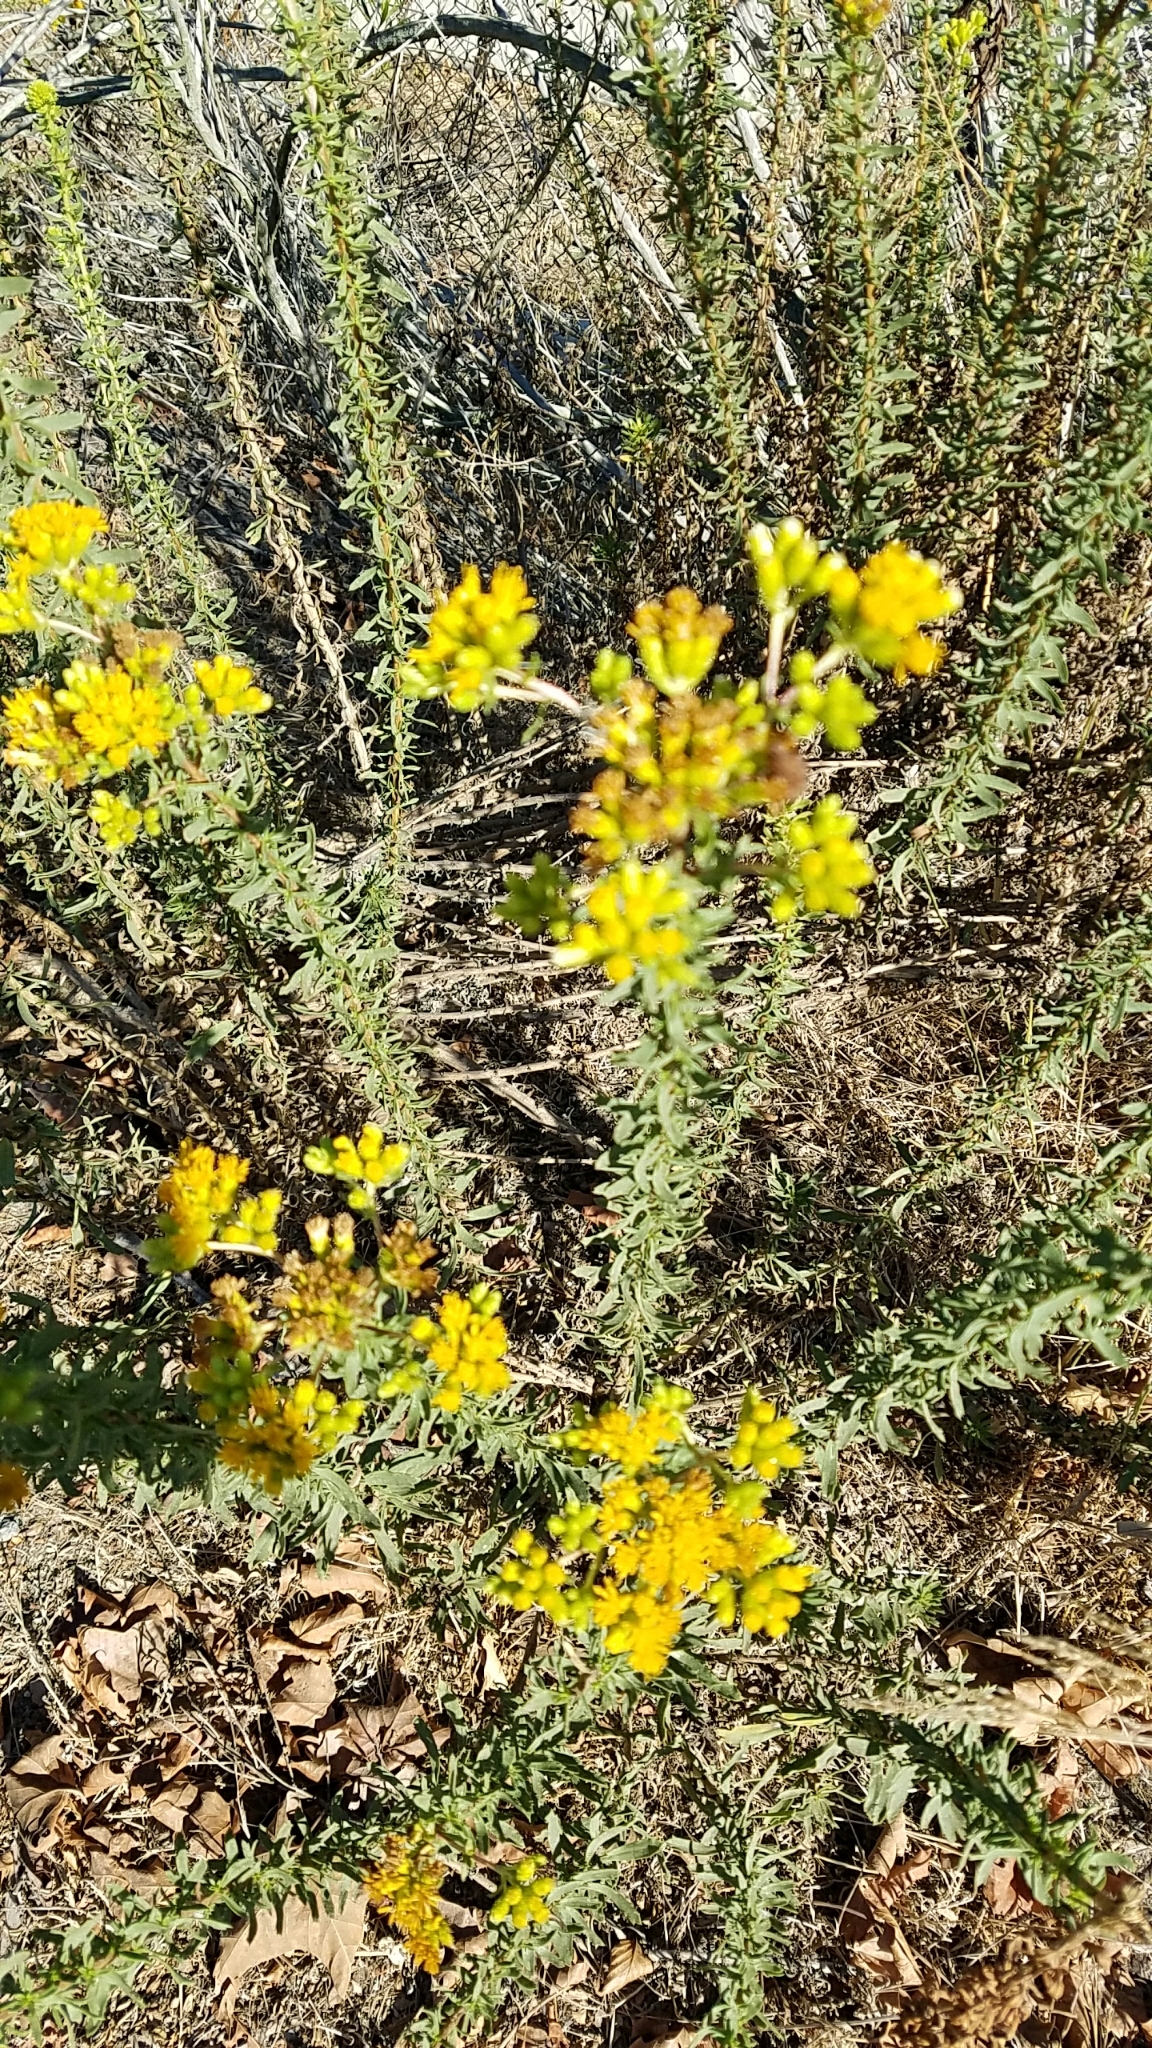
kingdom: Plantae
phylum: Tracheophyta
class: Magnoliopsida
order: Asterales
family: Asteraceae
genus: Isocoma
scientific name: Isocoma menziesii
